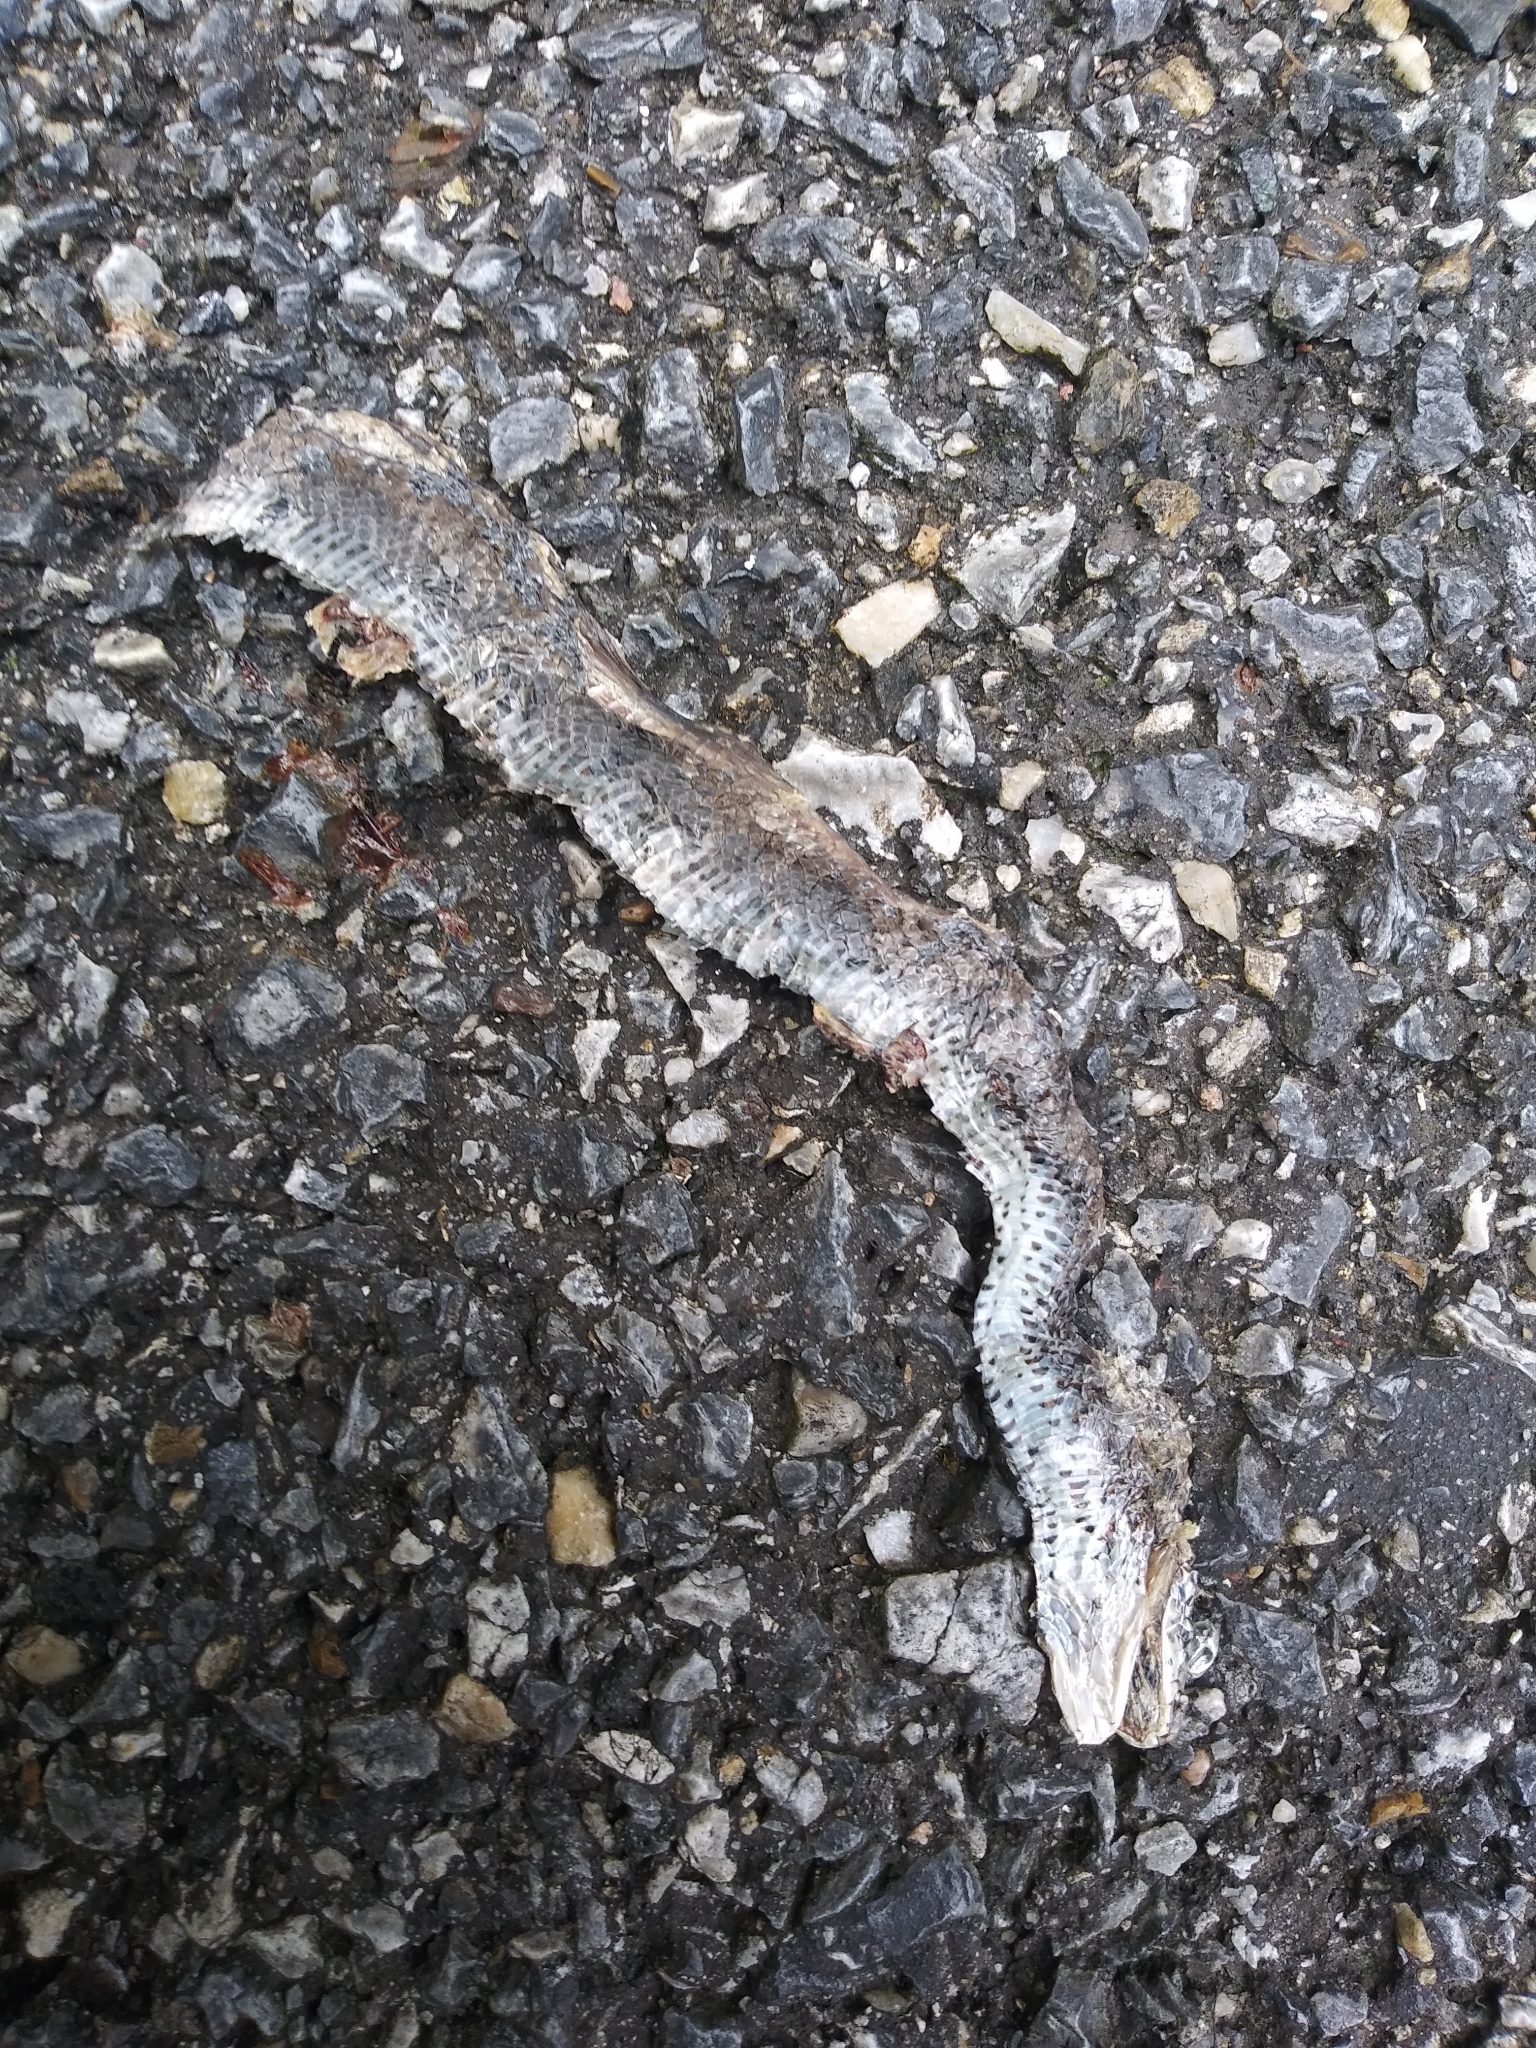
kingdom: Animalia
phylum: Chordata
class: Squamata
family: Colubridae
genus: Coluber
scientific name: Coluber constrictor
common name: Eastern racer
